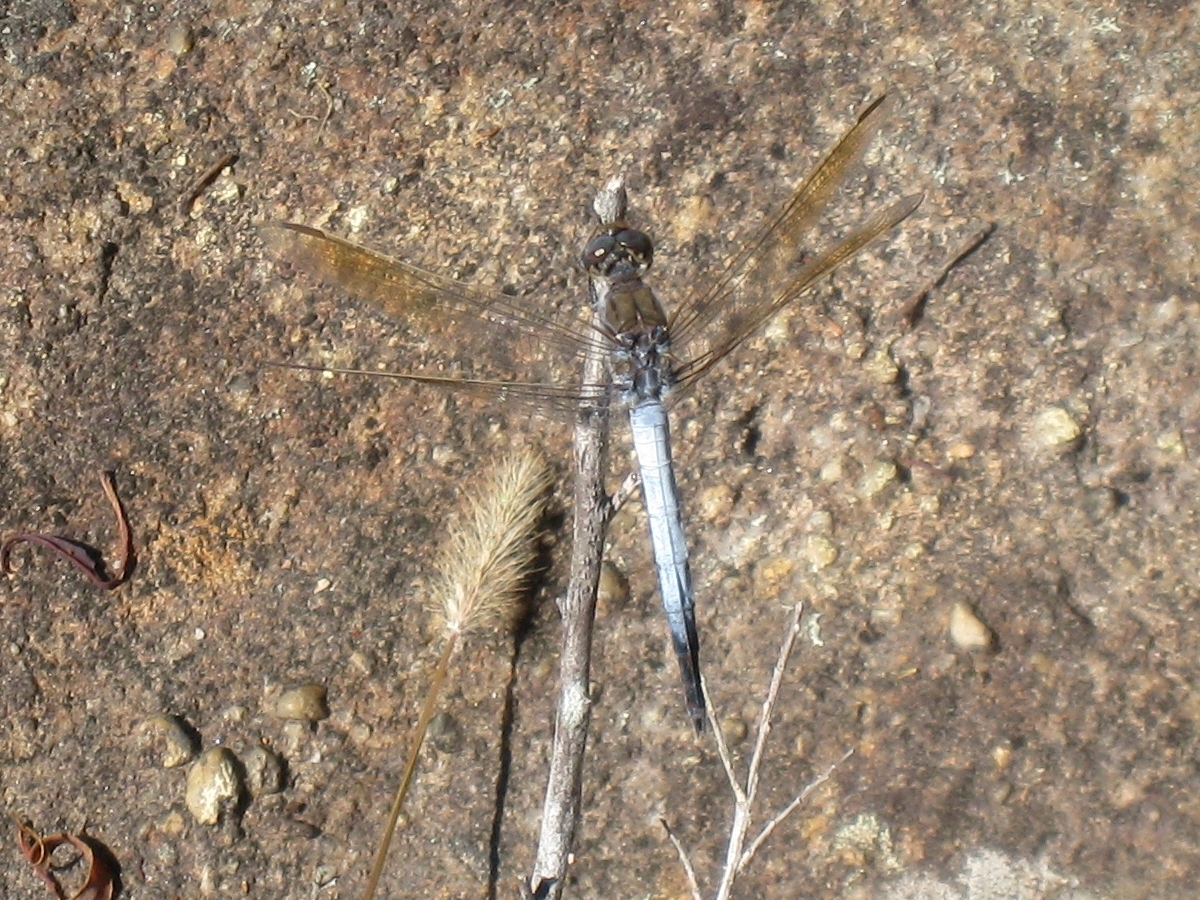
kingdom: Animalia
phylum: Arthropoda
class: Insecta
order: Odonata
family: Libellulidae
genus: Orthetrum
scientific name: Orthetrum caledonicum
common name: Blue skimmer
